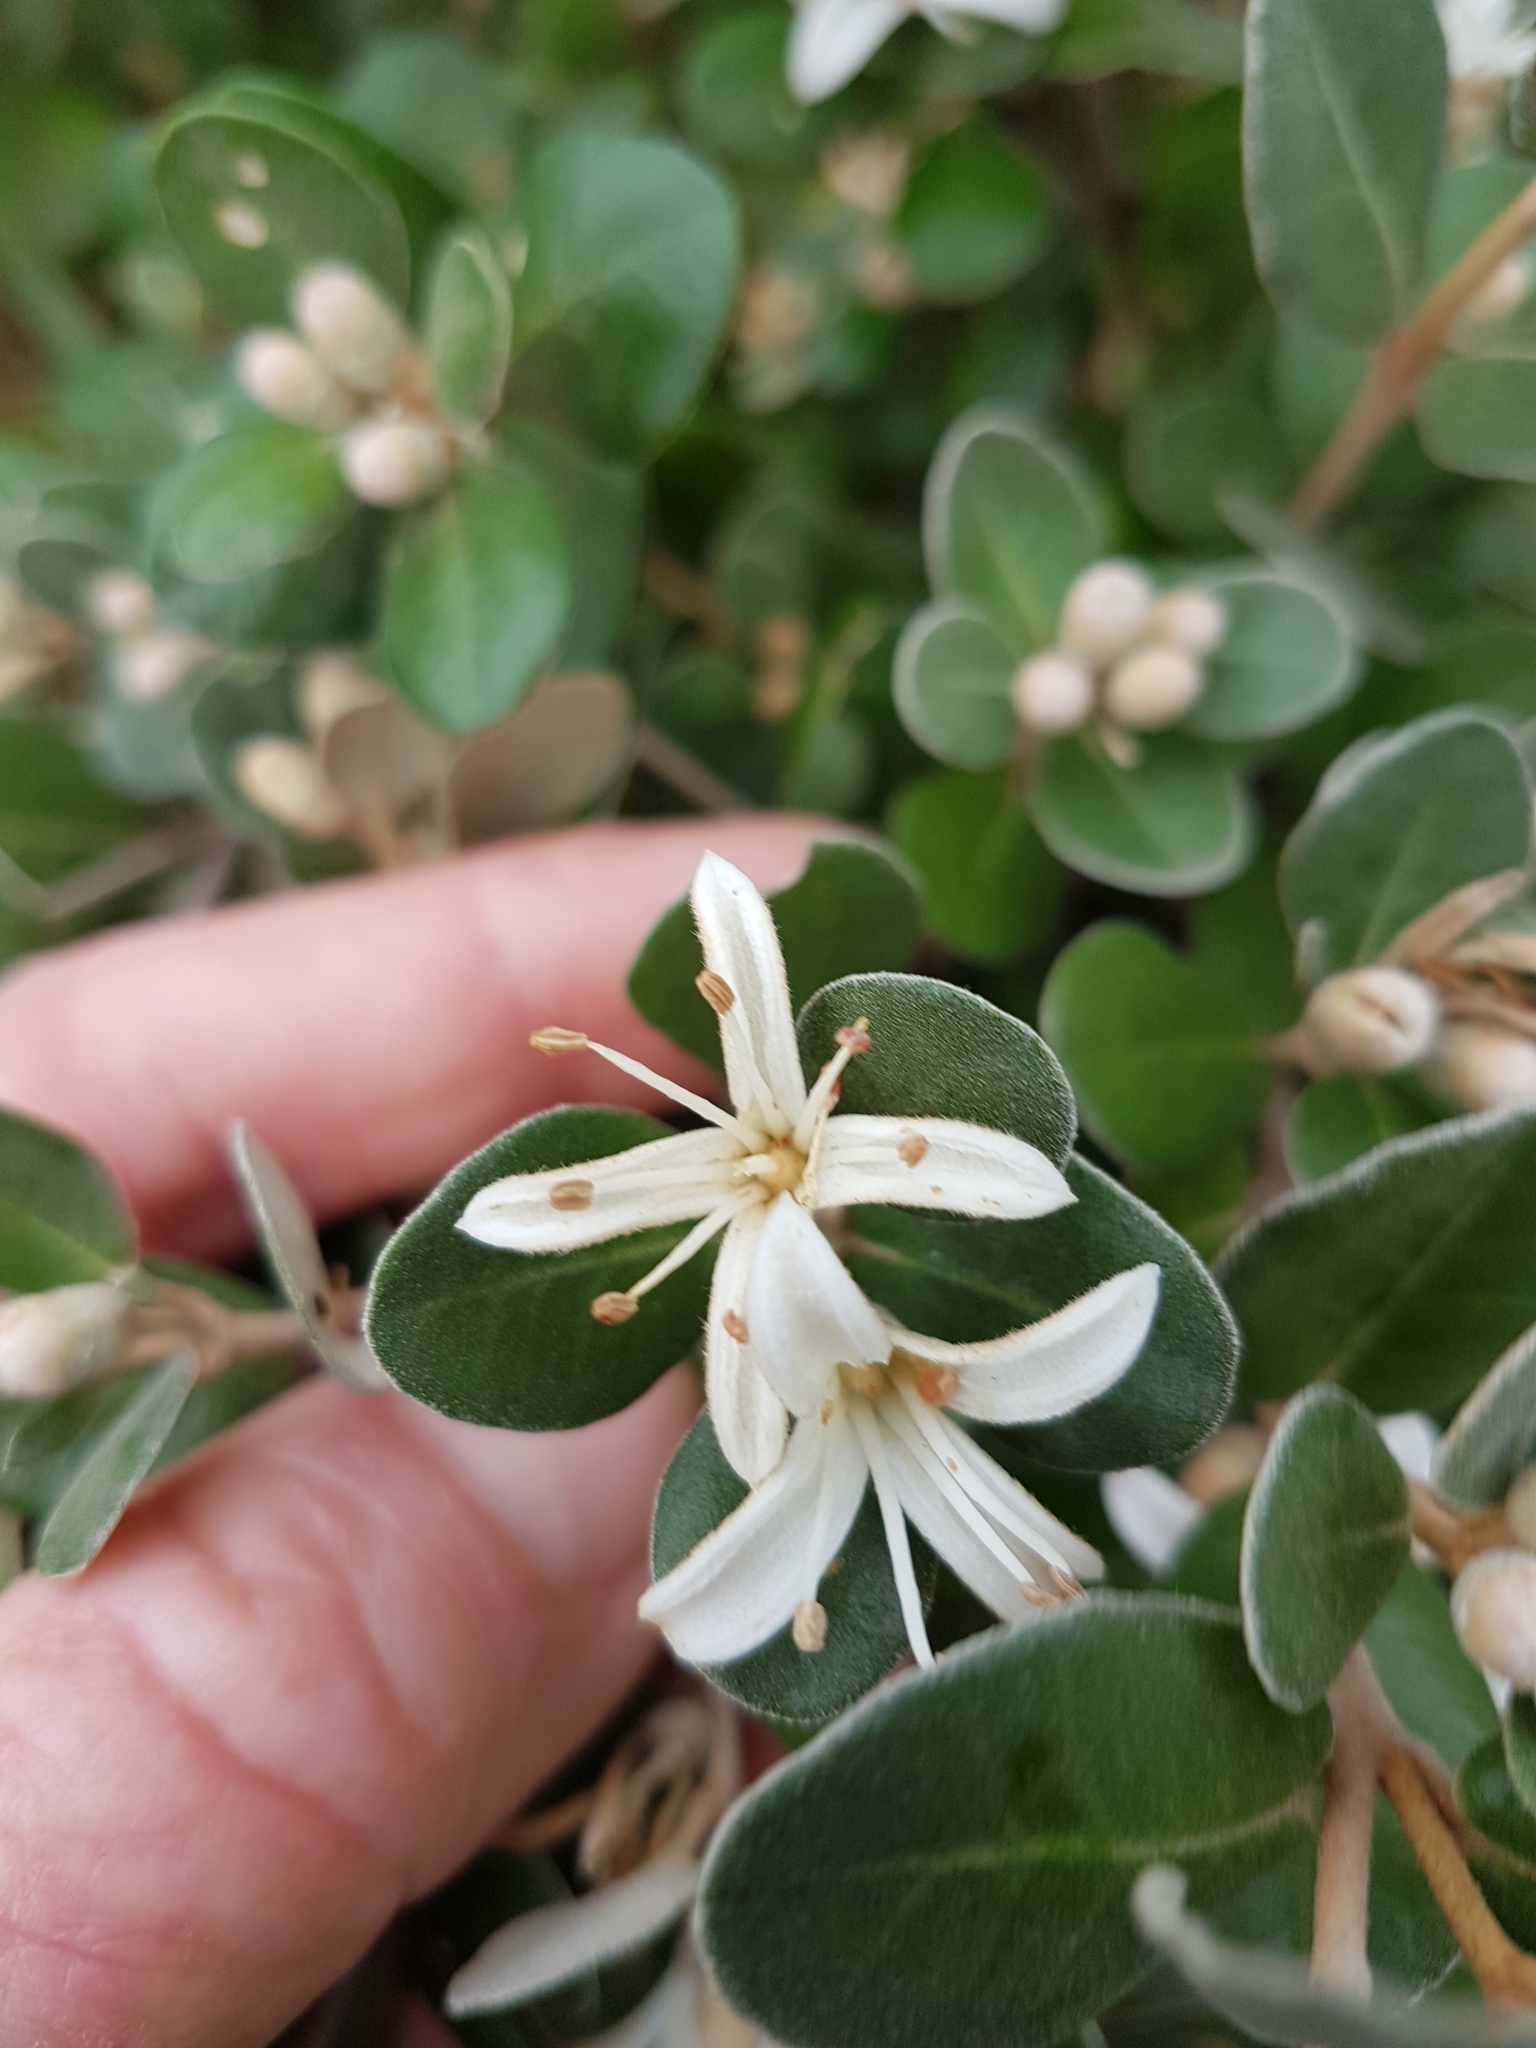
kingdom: Plantae
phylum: Tracheophyta
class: Magnoliopsida
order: Sapindales
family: Rutaceae
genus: Correa
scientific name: Correa alba
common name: White correa
